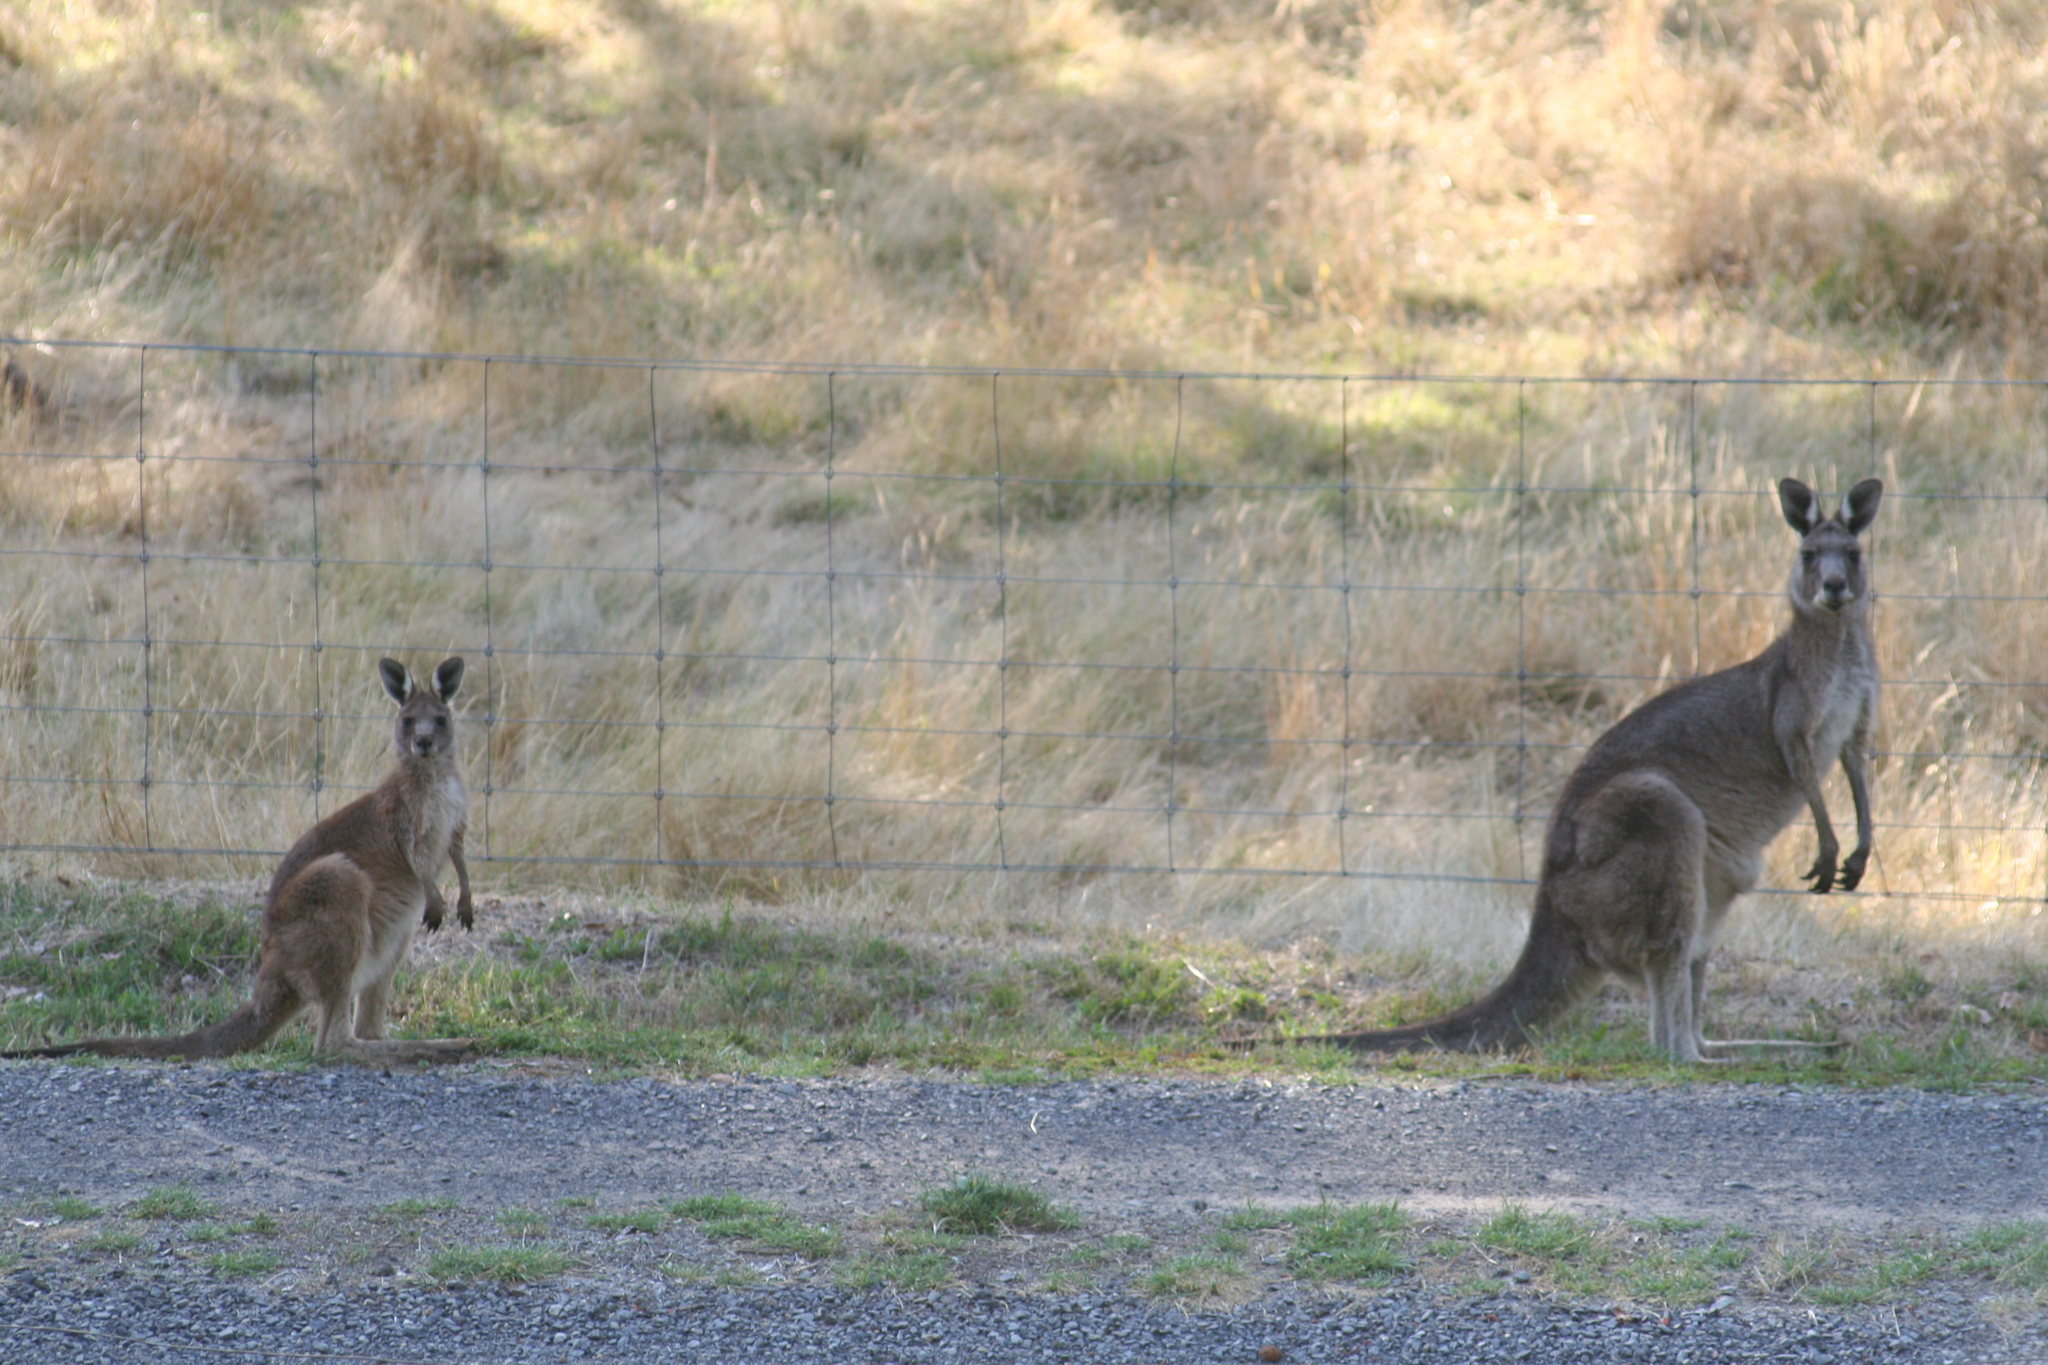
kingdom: Animalia
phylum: Chordata
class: Mammalia
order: Diprotodontia
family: Macropodidae
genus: Macropus
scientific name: Macropus giganteus
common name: Eastern grey kangaroo
